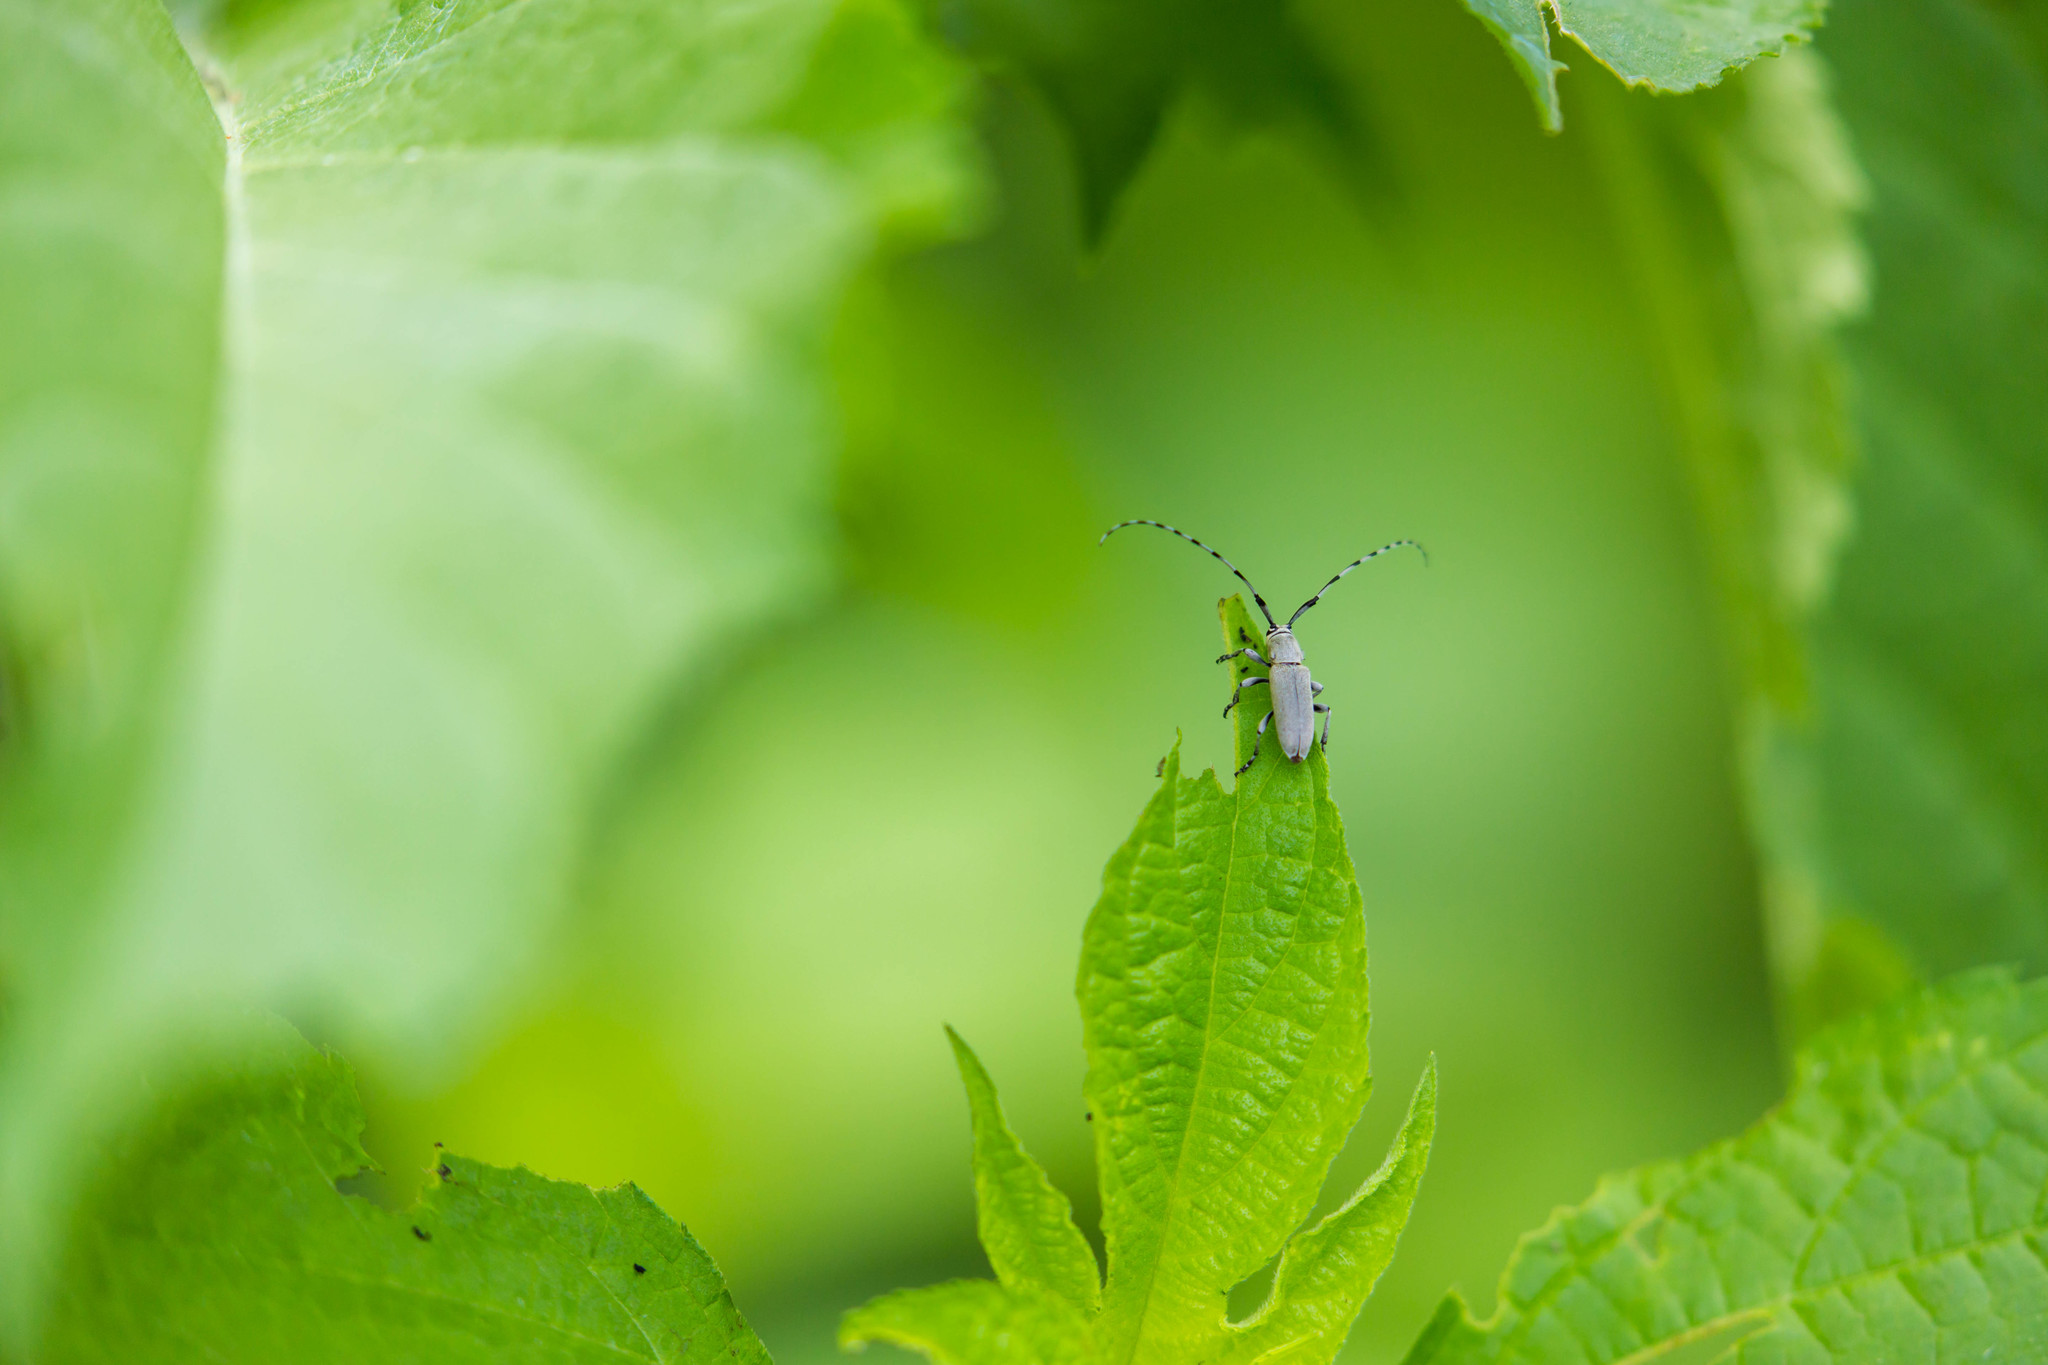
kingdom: Animalia
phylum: Arthropoda
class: Insecta
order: Coleoptera
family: Cerambycidae
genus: Dectes
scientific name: Dectes texanus
